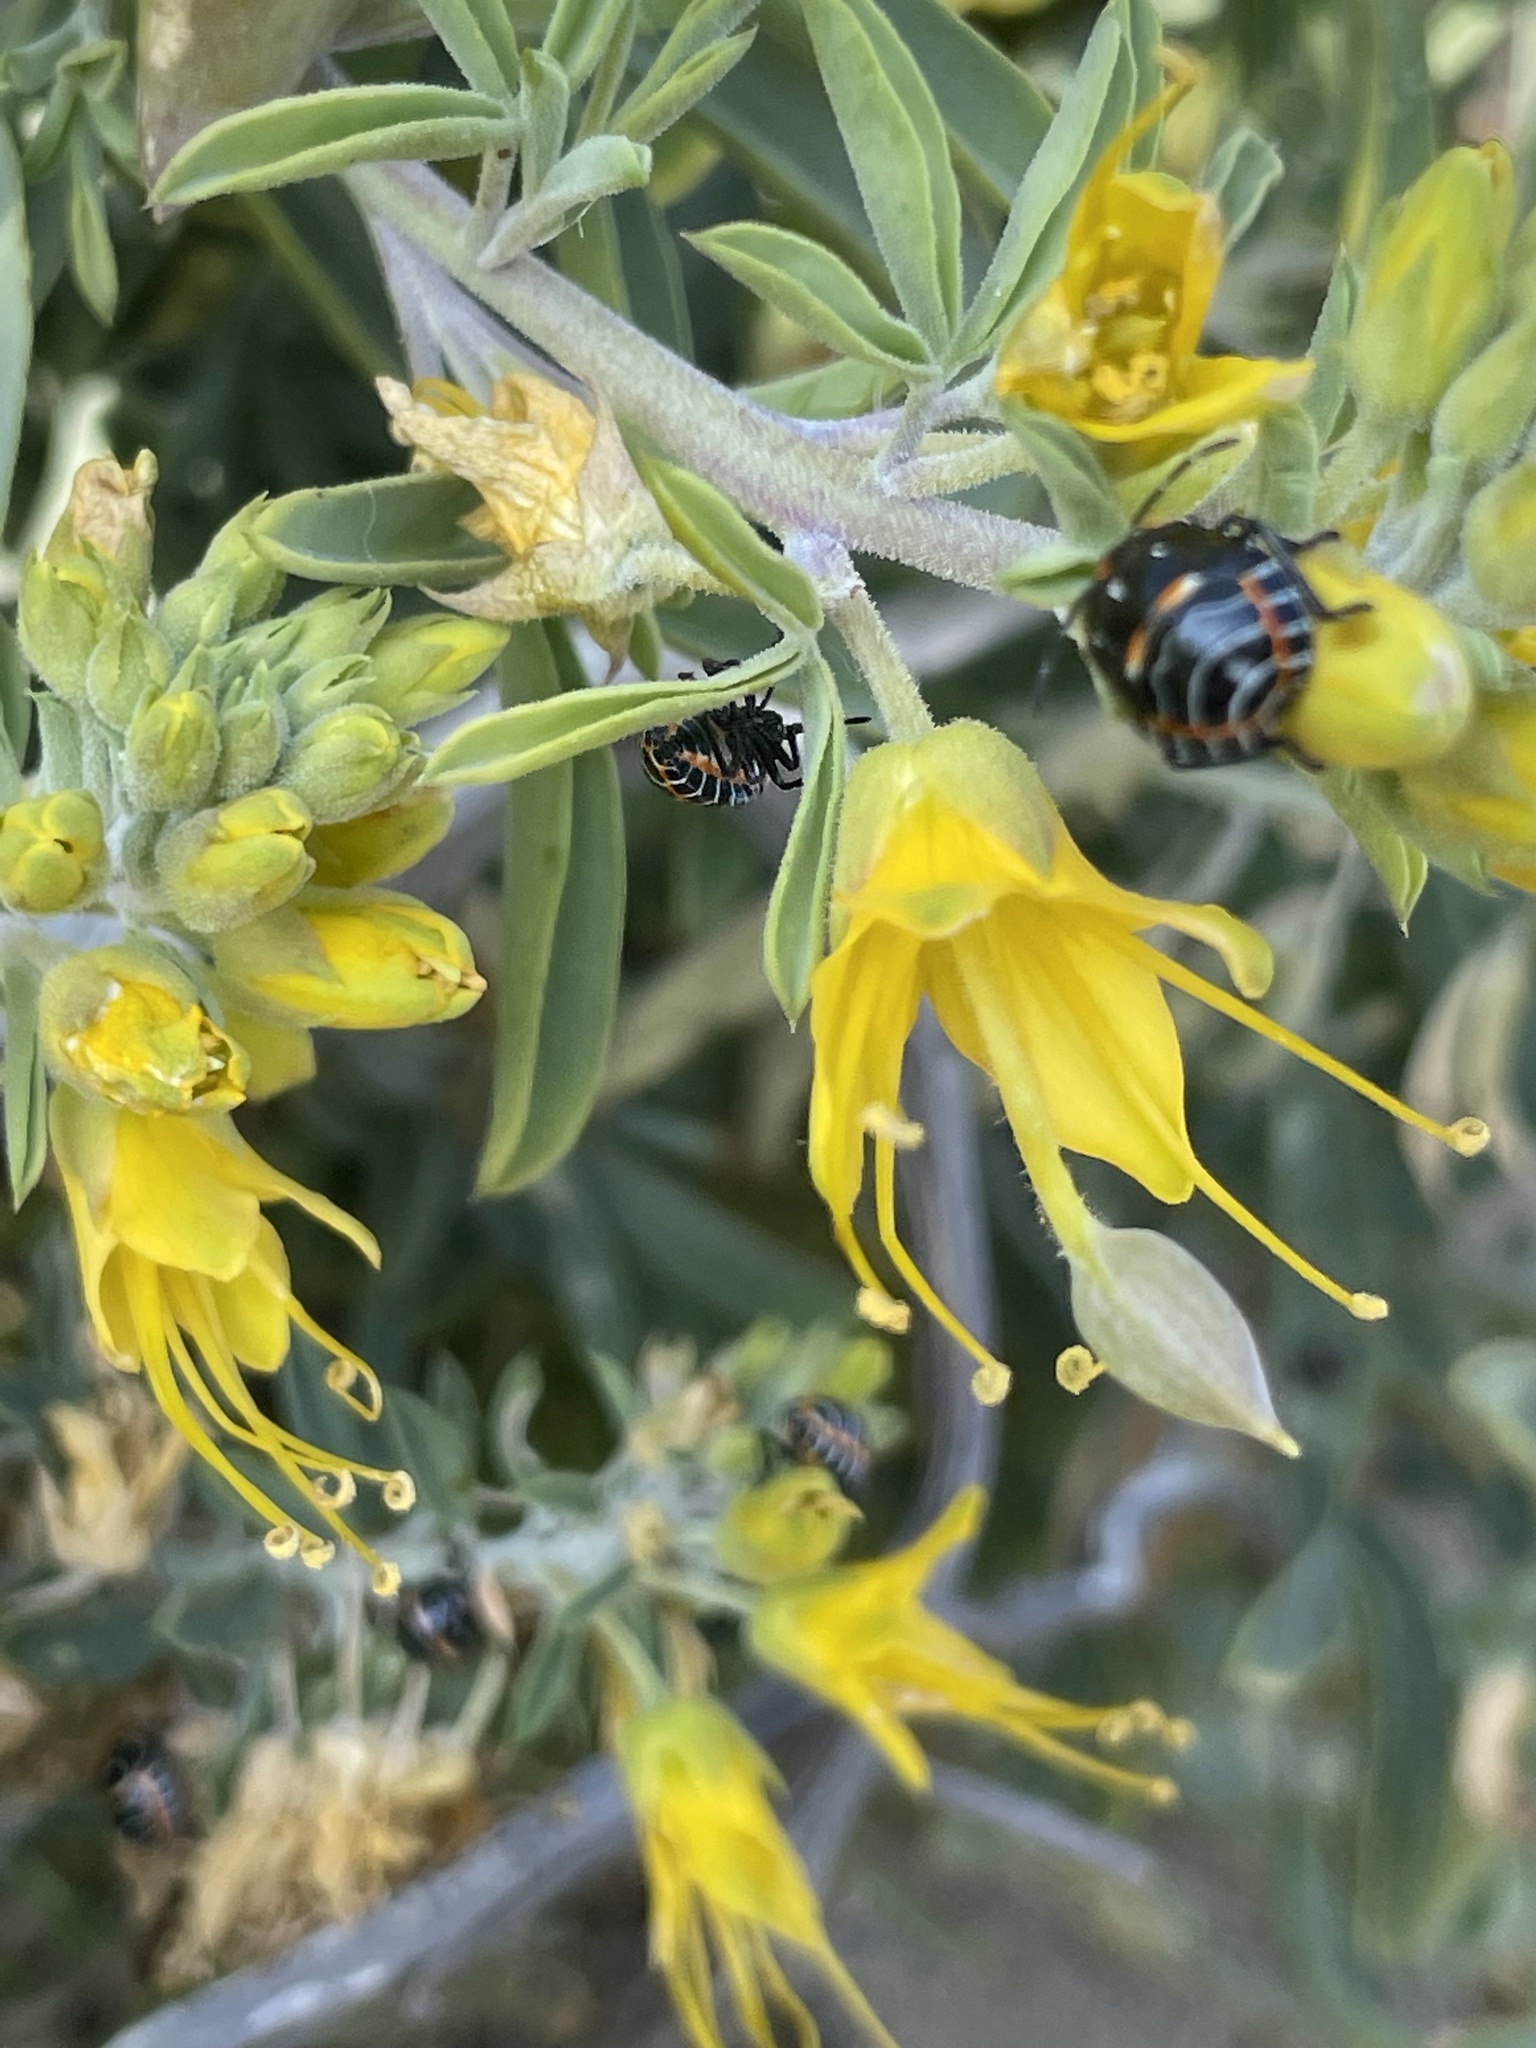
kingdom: Animalia
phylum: Arthropoda
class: Insecta
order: Hemiptera
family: Pentatomidae
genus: Murgantia
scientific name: Murgantia histrionica
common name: Harlequin bug
